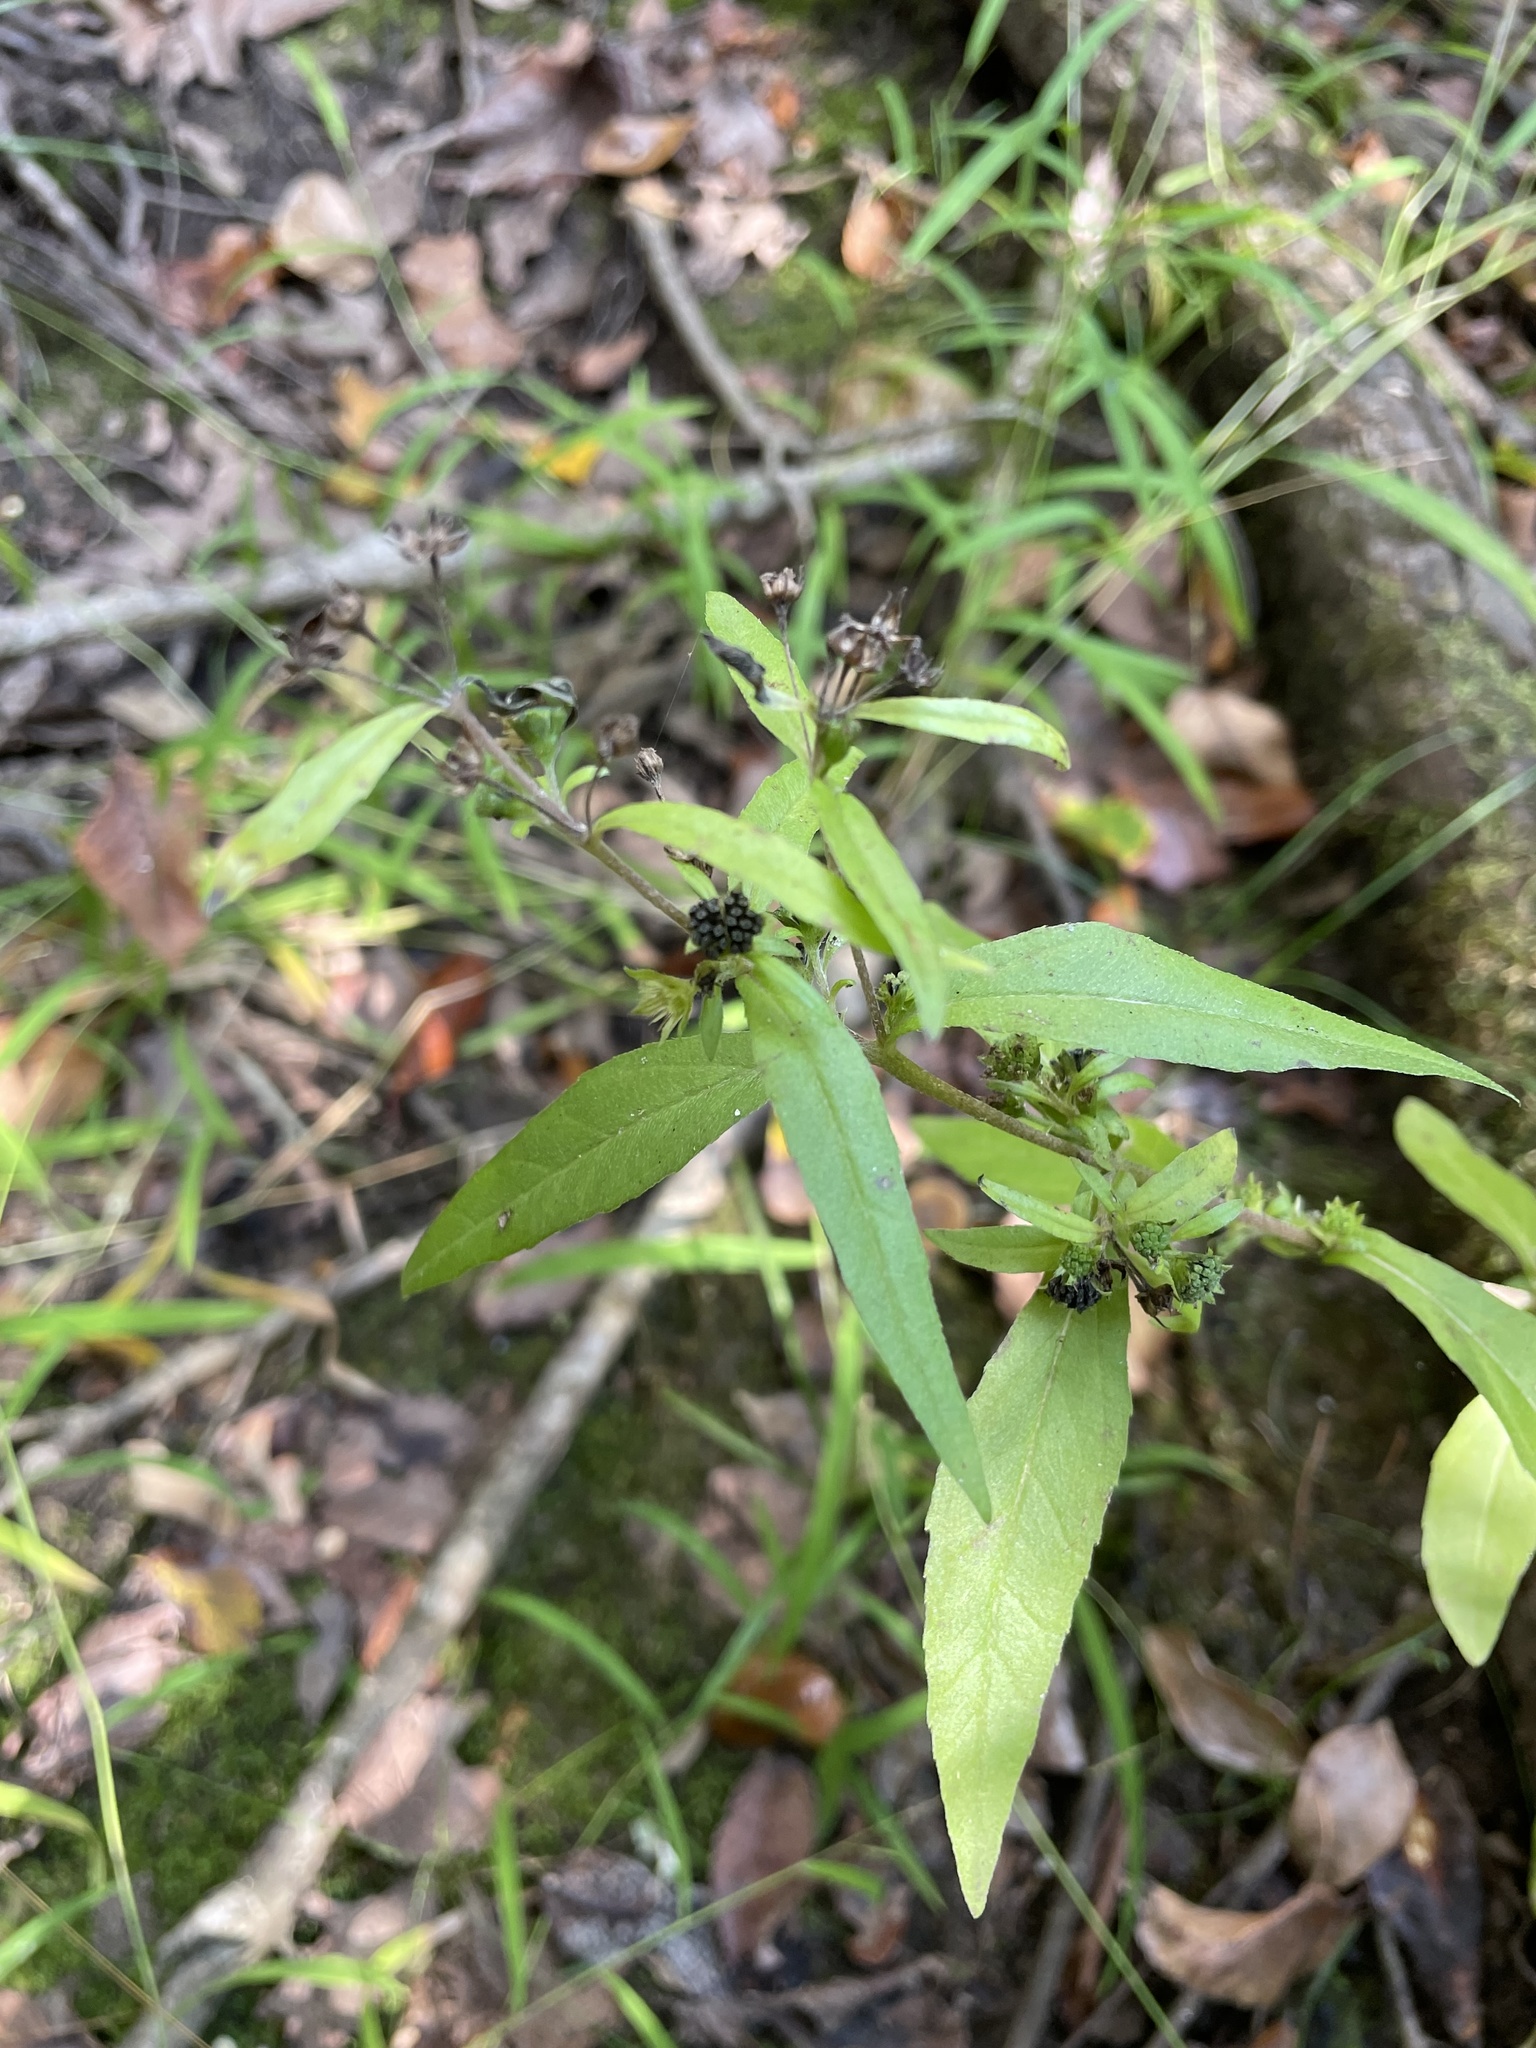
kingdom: Plantae
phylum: Tracheophyta
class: Magnoliopsida
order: Asterales
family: Asteraceae
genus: Eclipta
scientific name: Eclipta prostrata
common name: False daisy
